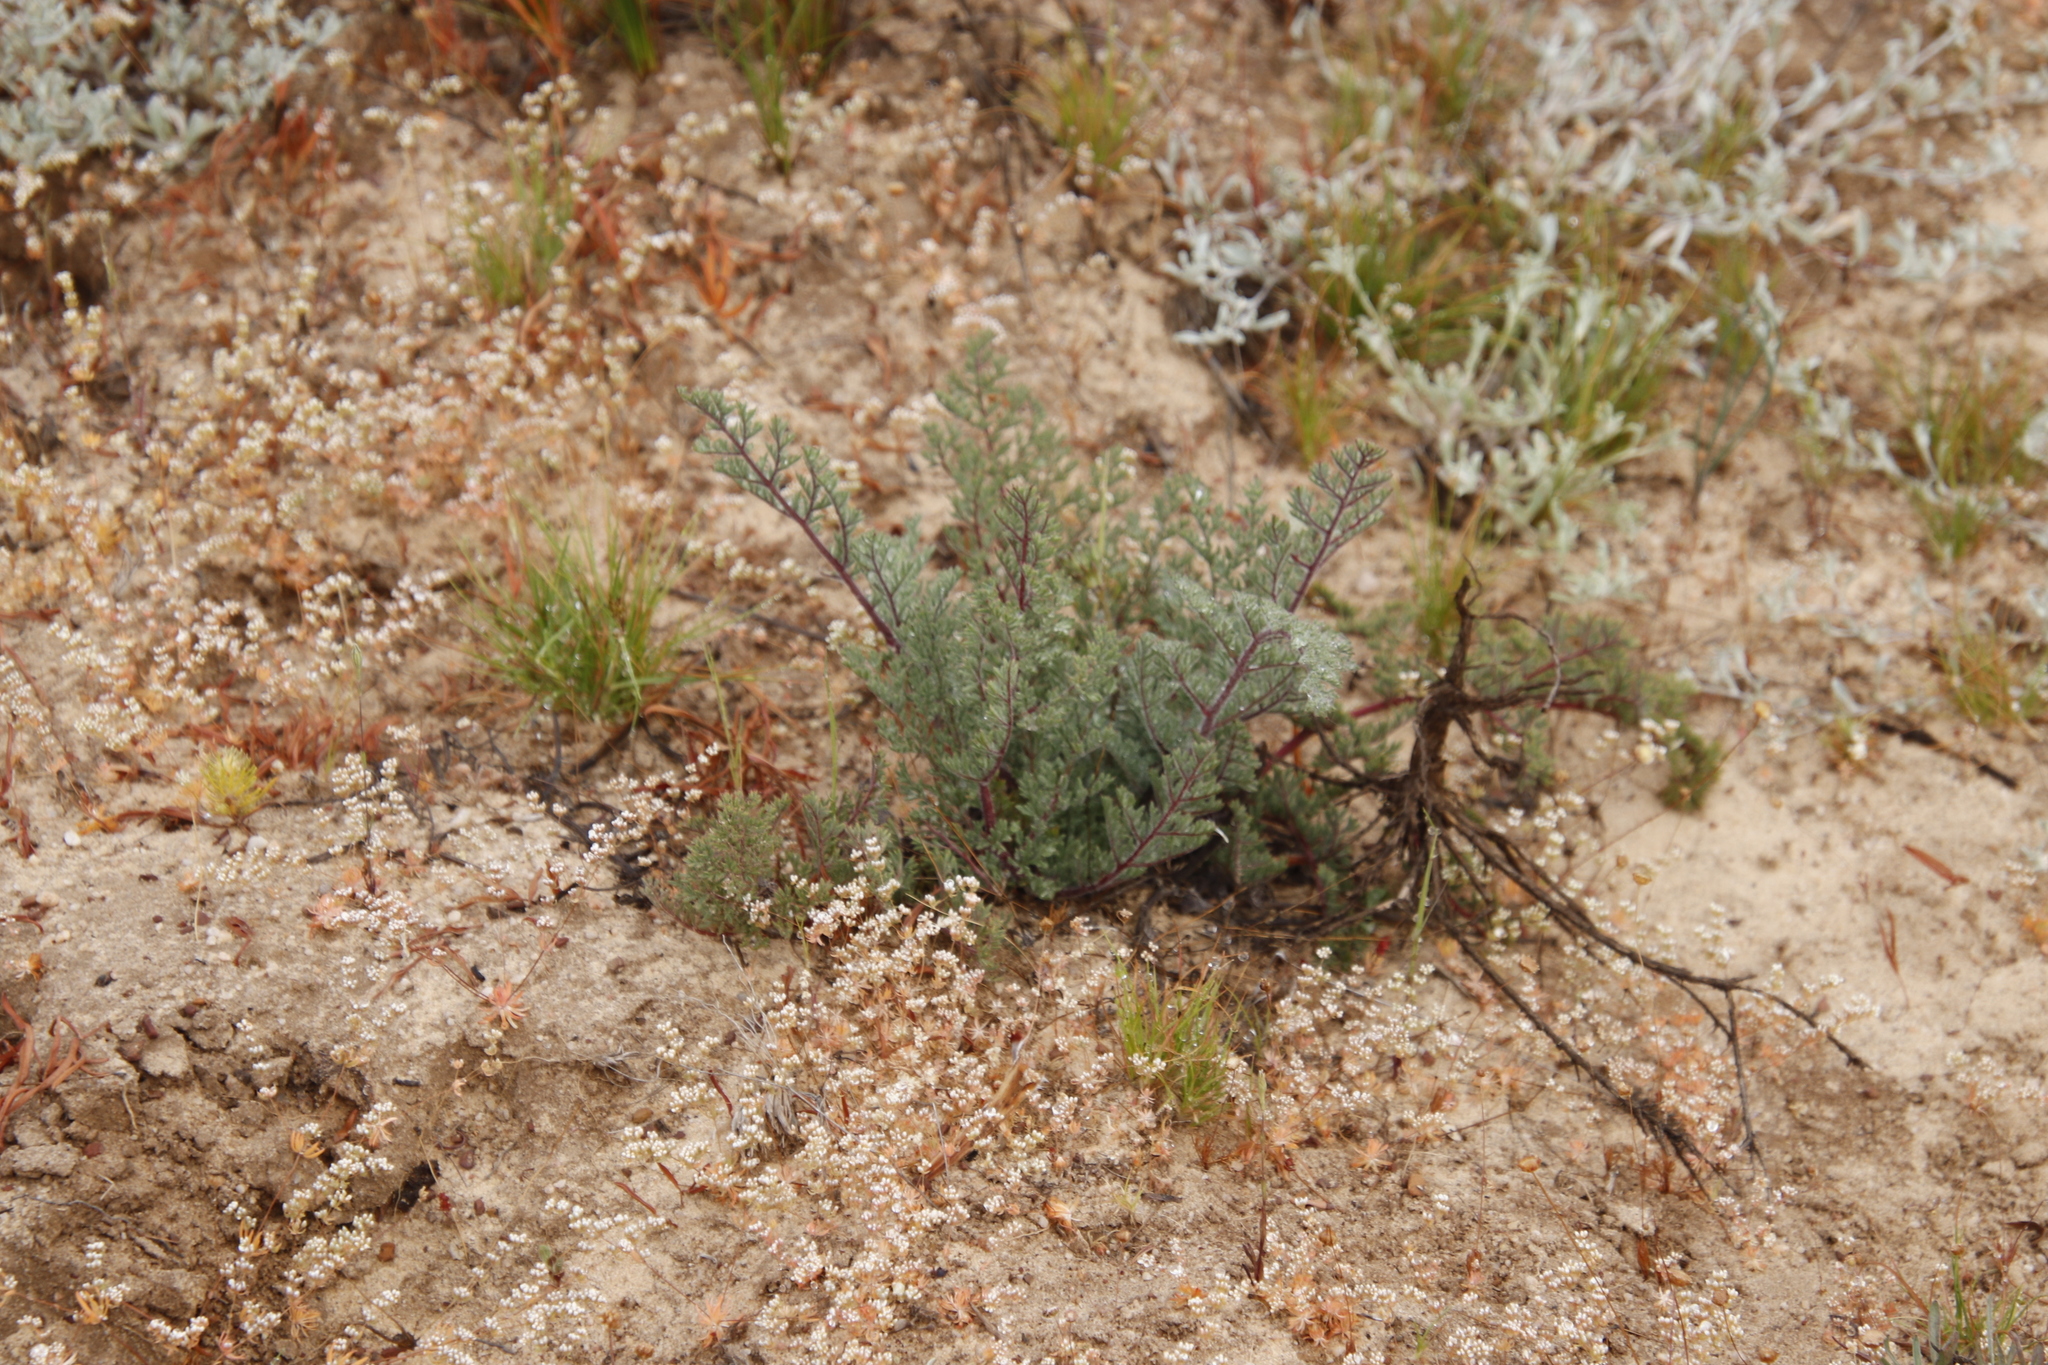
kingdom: Plantae
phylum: Tracheophyta
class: Magnoliopsida
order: Geraniales
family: Geraniaceae
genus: Pelargonium
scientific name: Pelargonium triste
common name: Night-scent pelargonium
